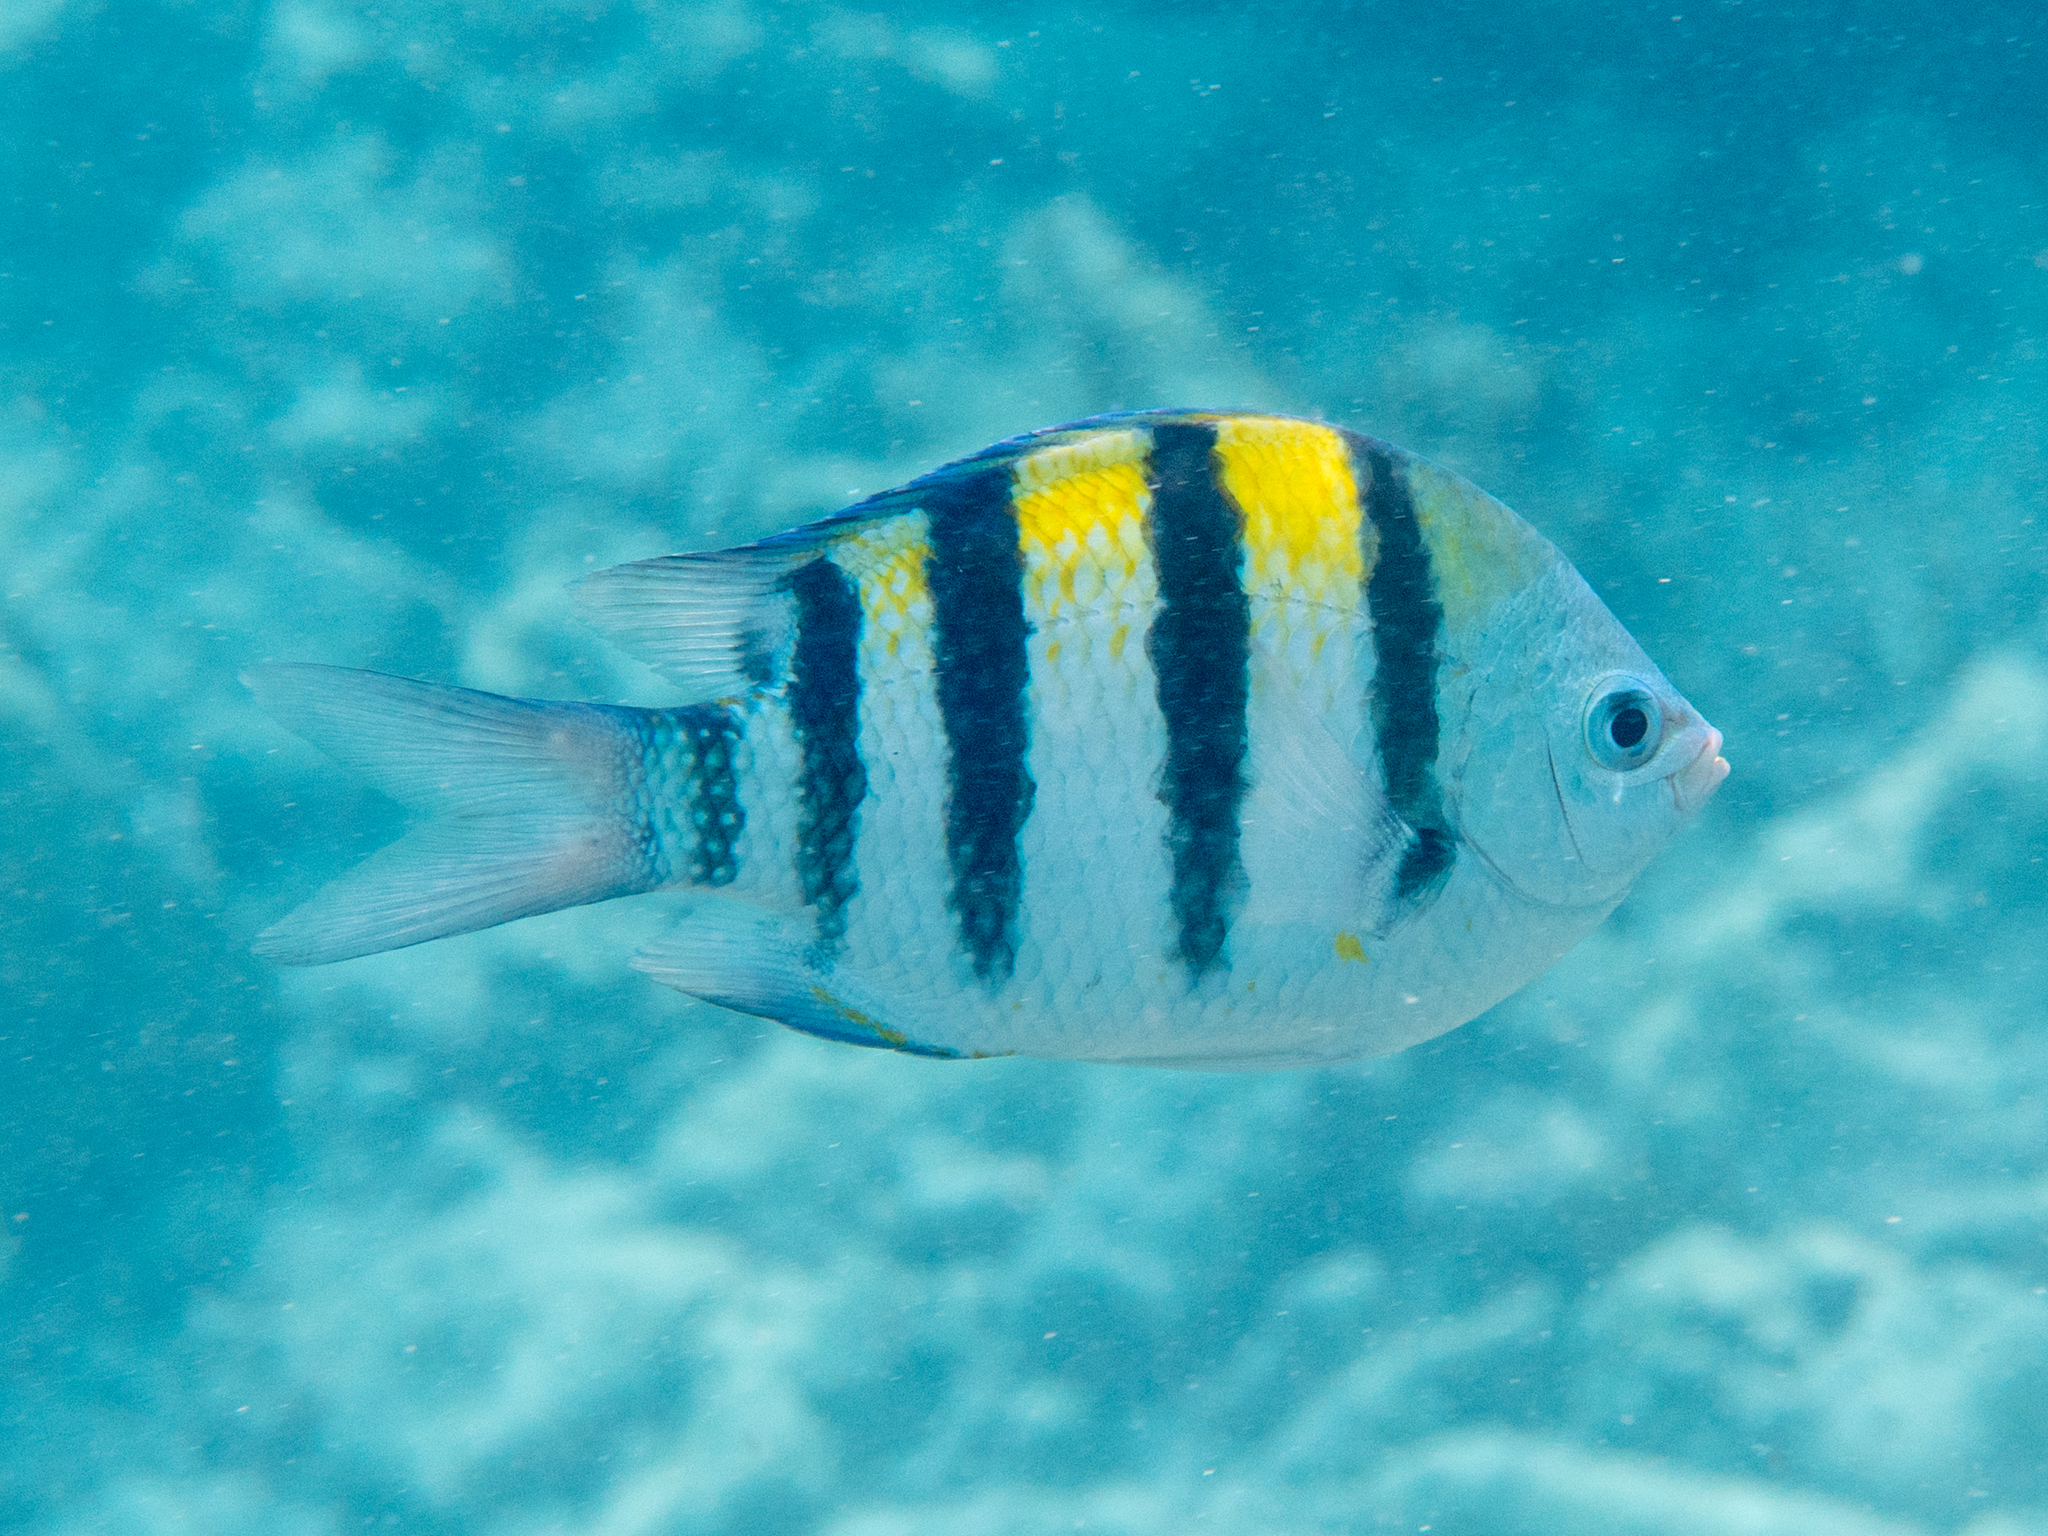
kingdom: Animalia
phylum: Chordata
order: Perciformes
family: Pomacentridae
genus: Abudefduf
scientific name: Abudefduf vaigiensis
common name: Indo-pacific sergeant
